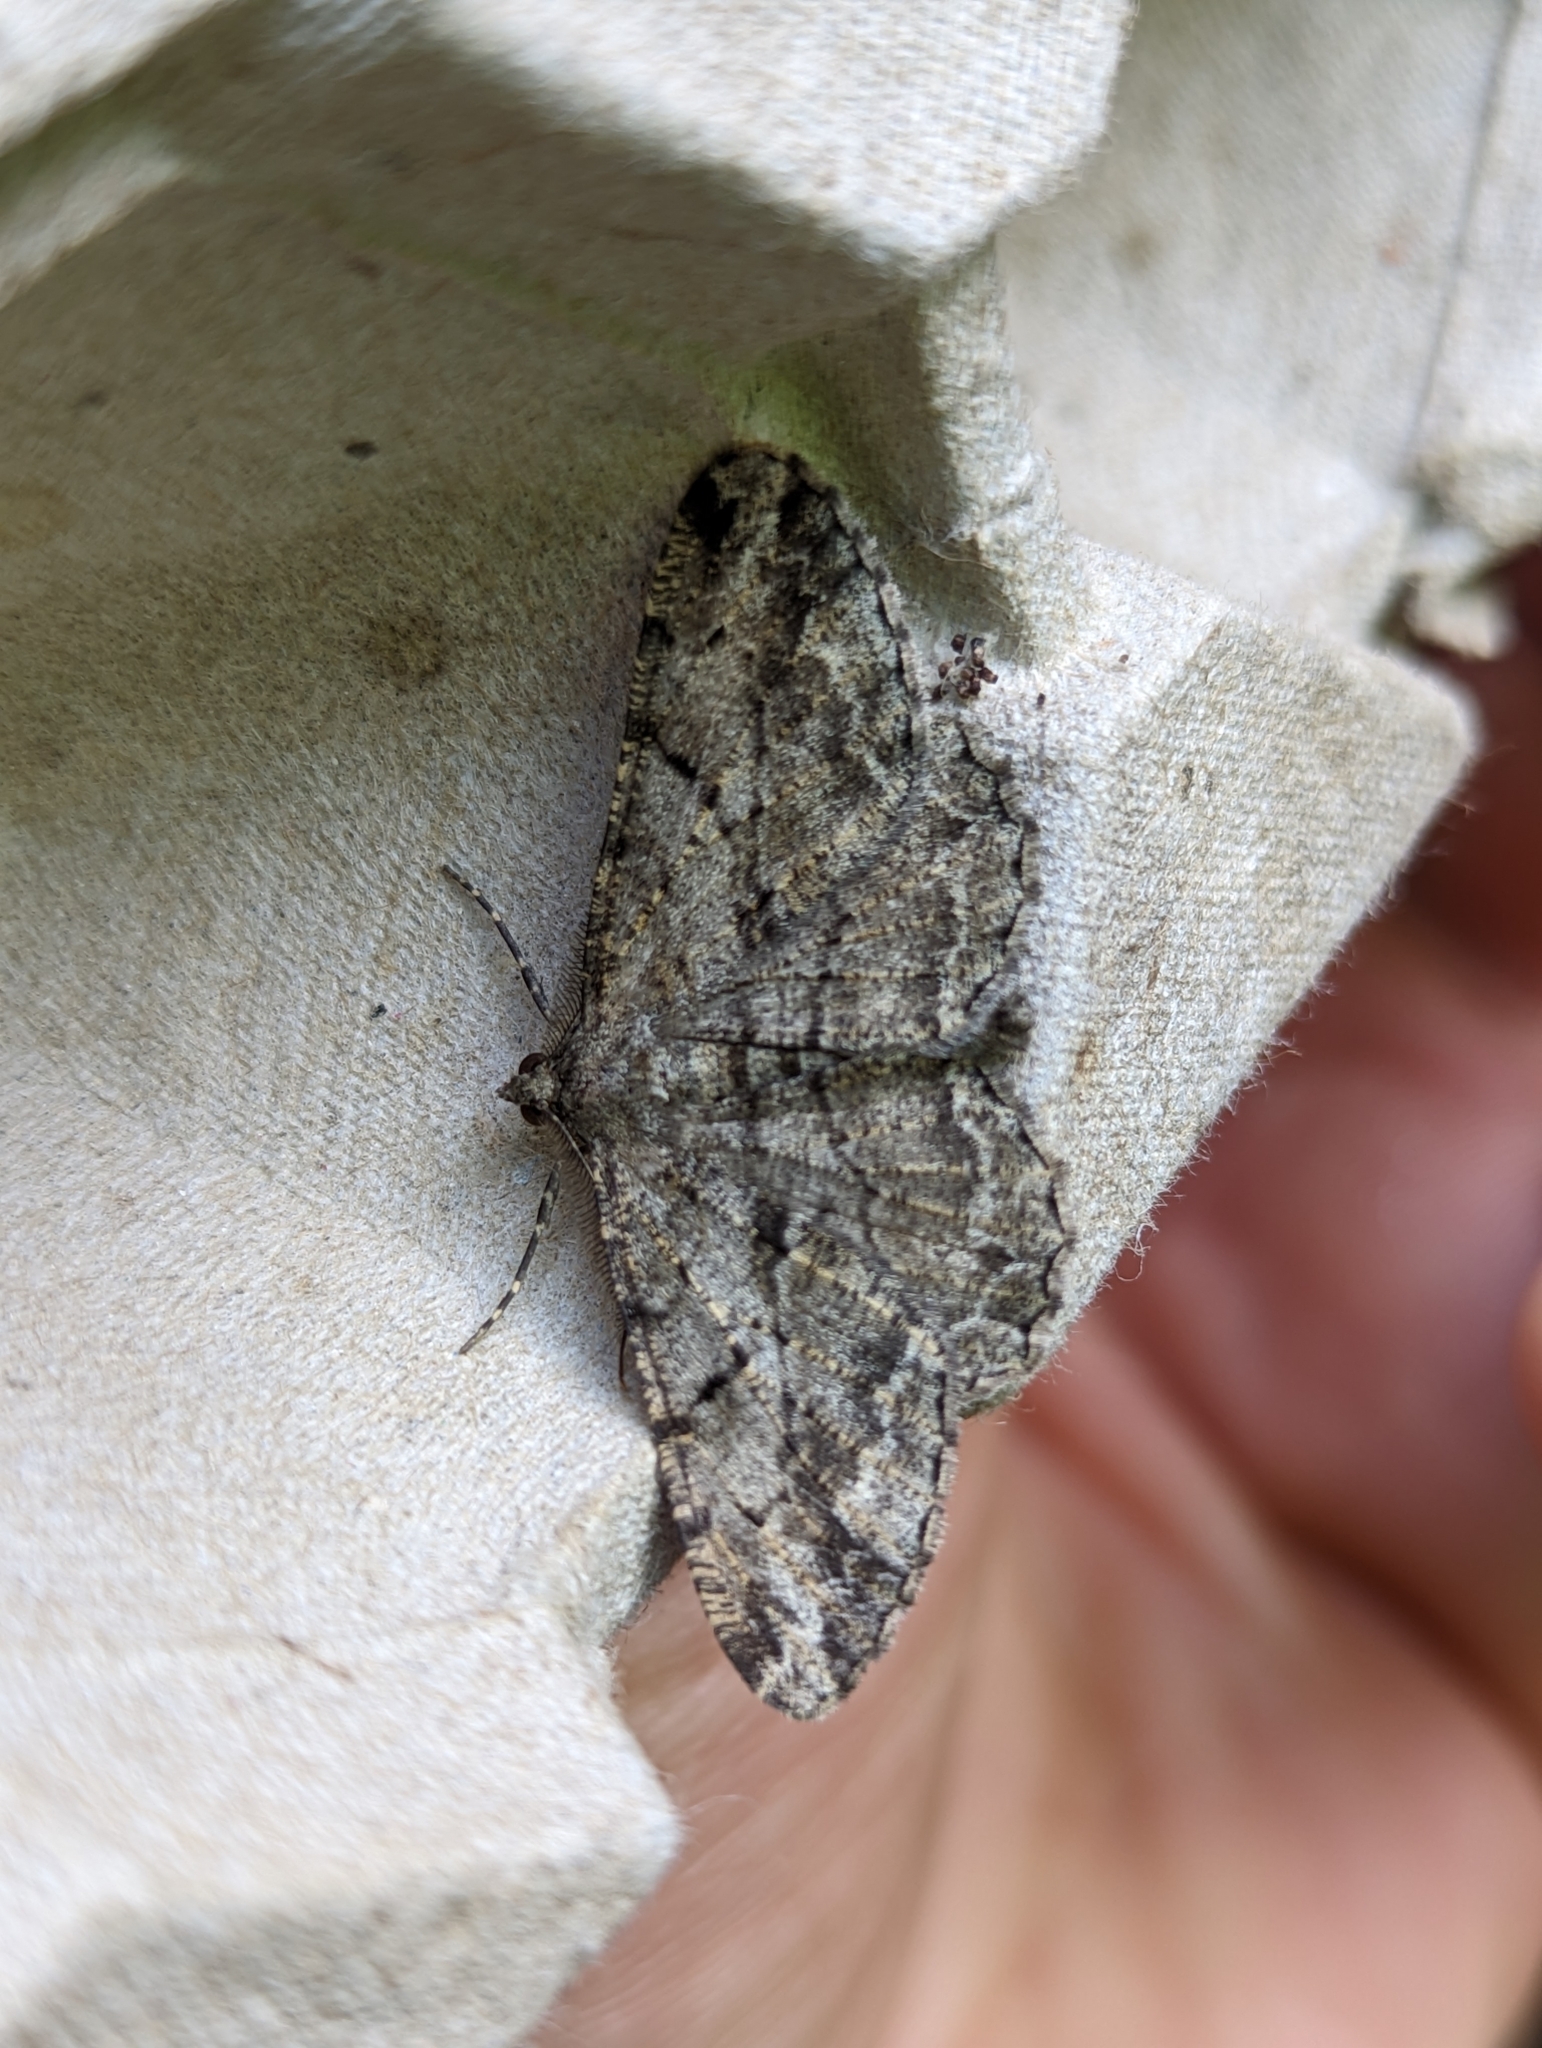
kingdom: Animalia
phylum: Arthropoda
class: Insecta
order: Lepidoptera
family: Geometridae
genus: Peribatodes
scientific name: Peribatodes rhomboidaria
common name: Willow beauty
